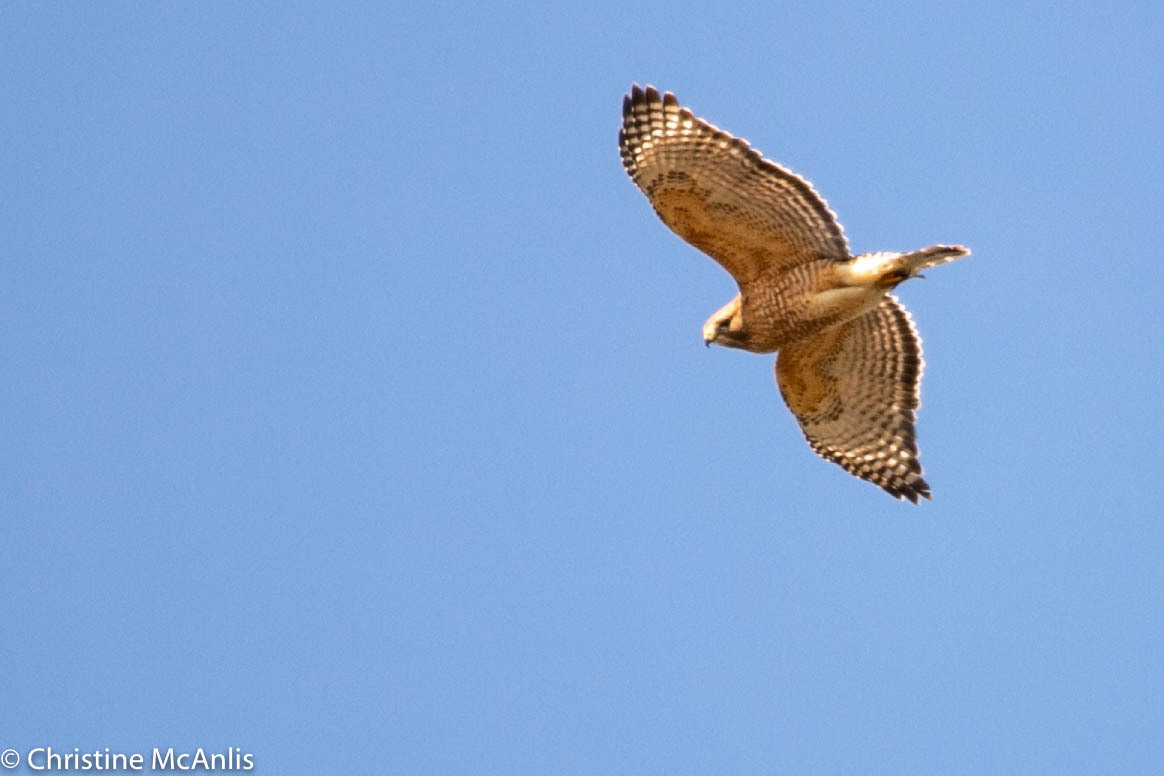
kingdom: Animalia
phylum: Chordata
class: Aves
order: Accipitriformes
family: Accipitridae
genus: Buteo
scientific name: Buteo lineatus
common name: Red-shouldered hawk
